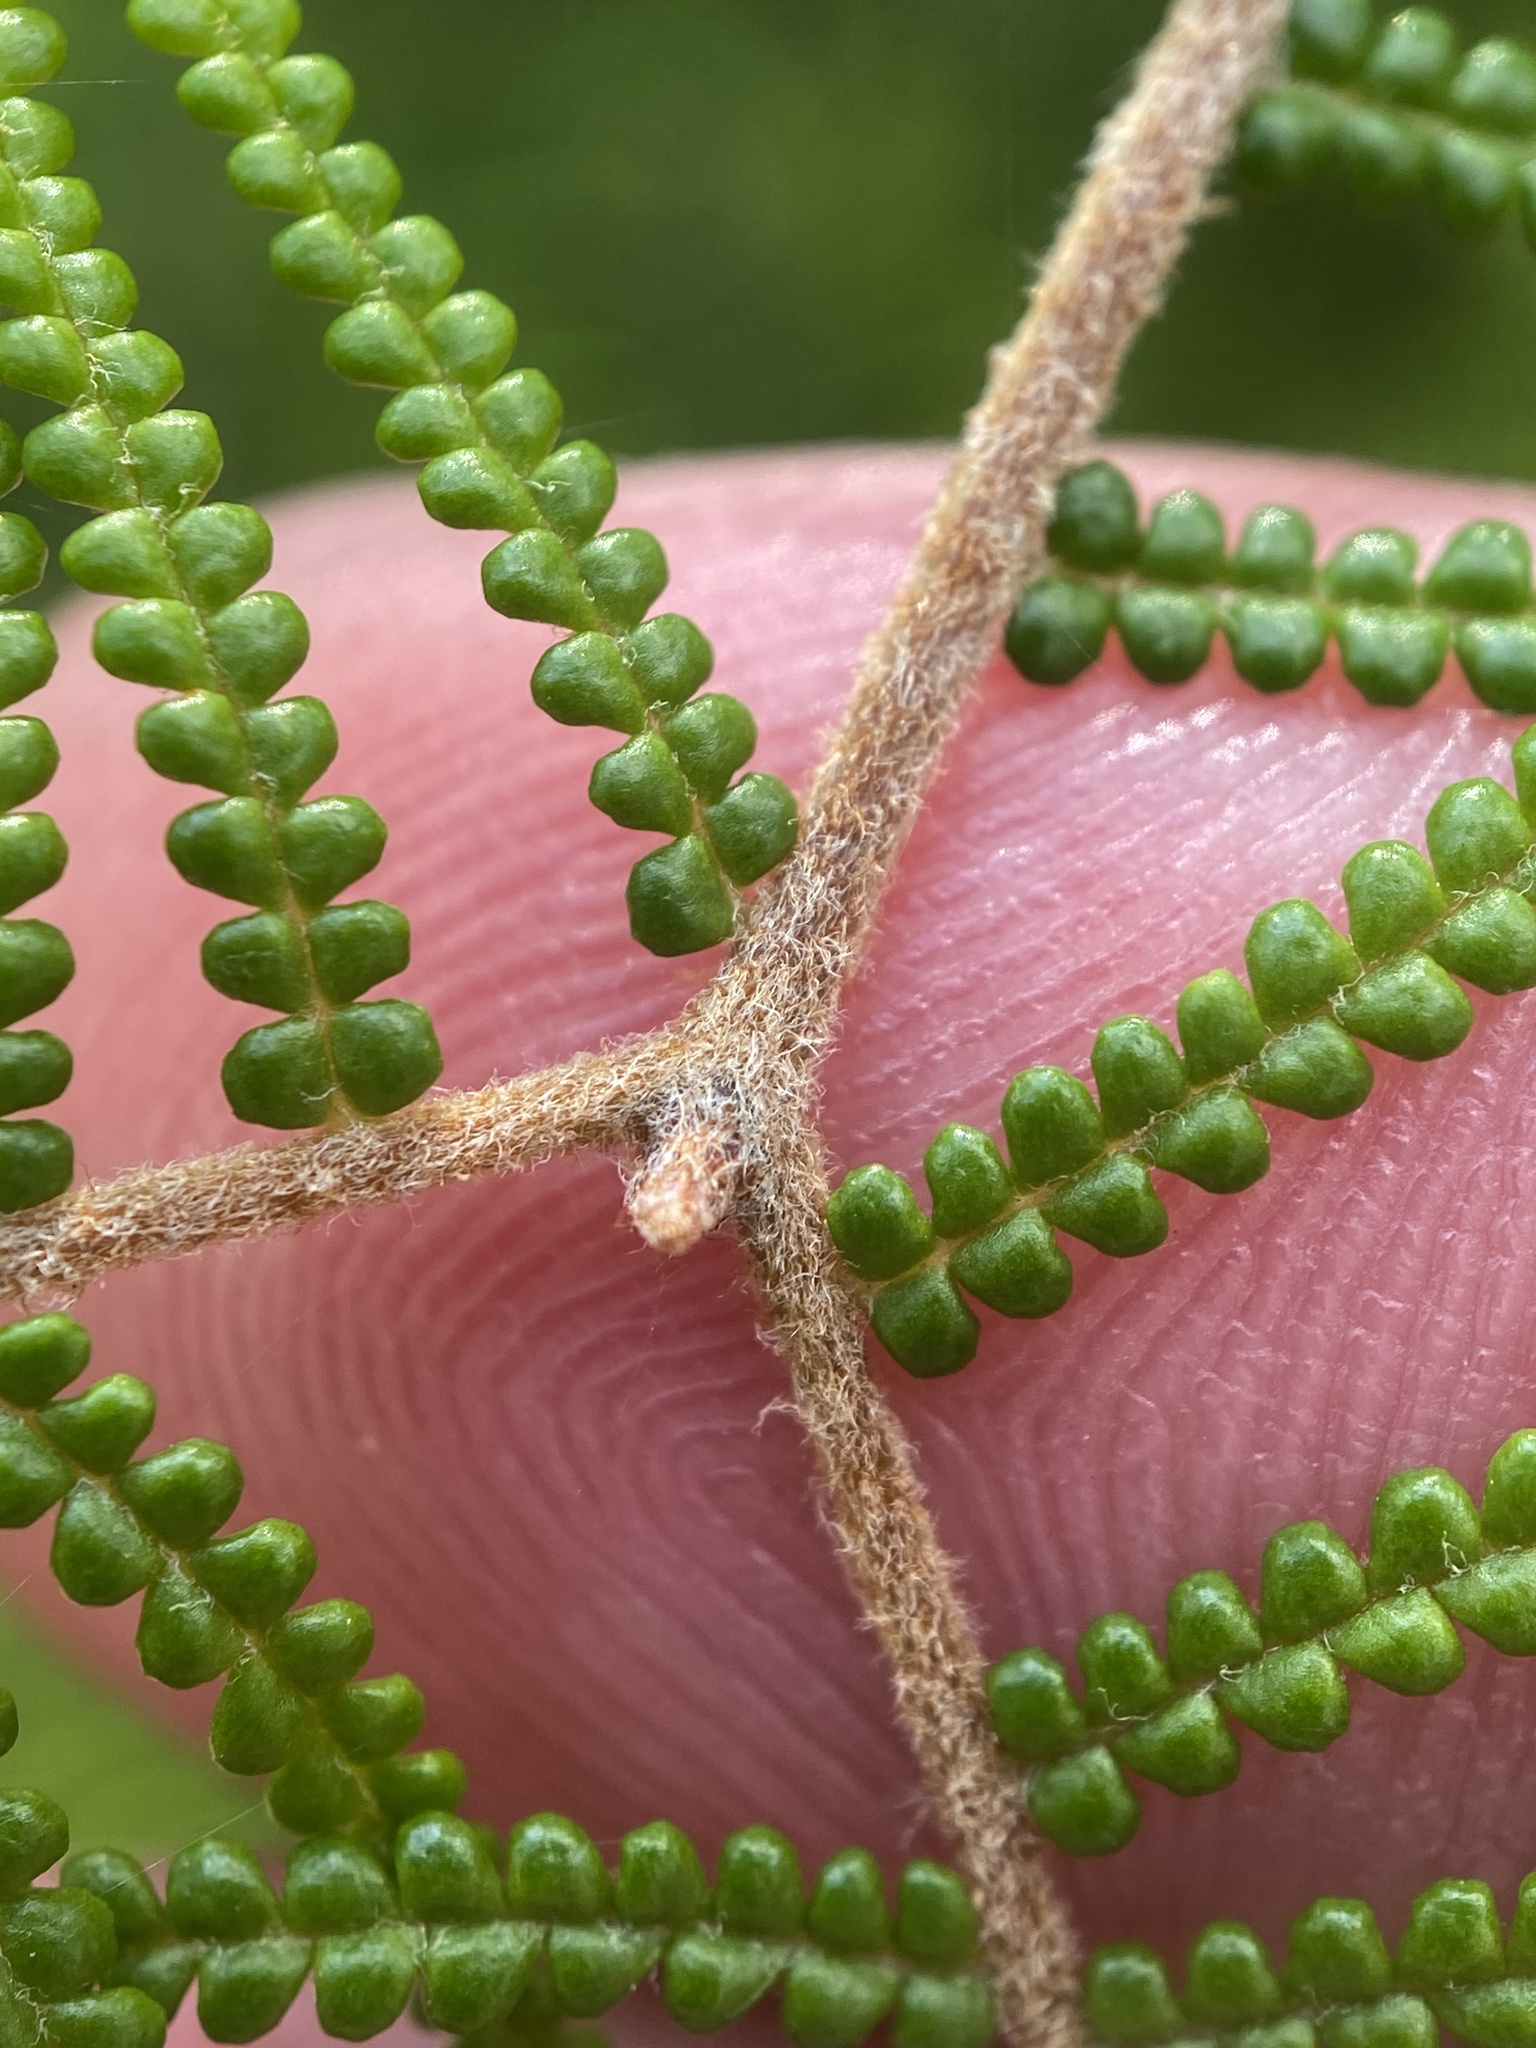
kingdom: Plantae
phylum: Tracheophyta
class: Polypodiopsida
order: Gleicheniales
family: Gleicheniaceae
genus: Gleichenia
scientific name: Gleichenia dicarpa
